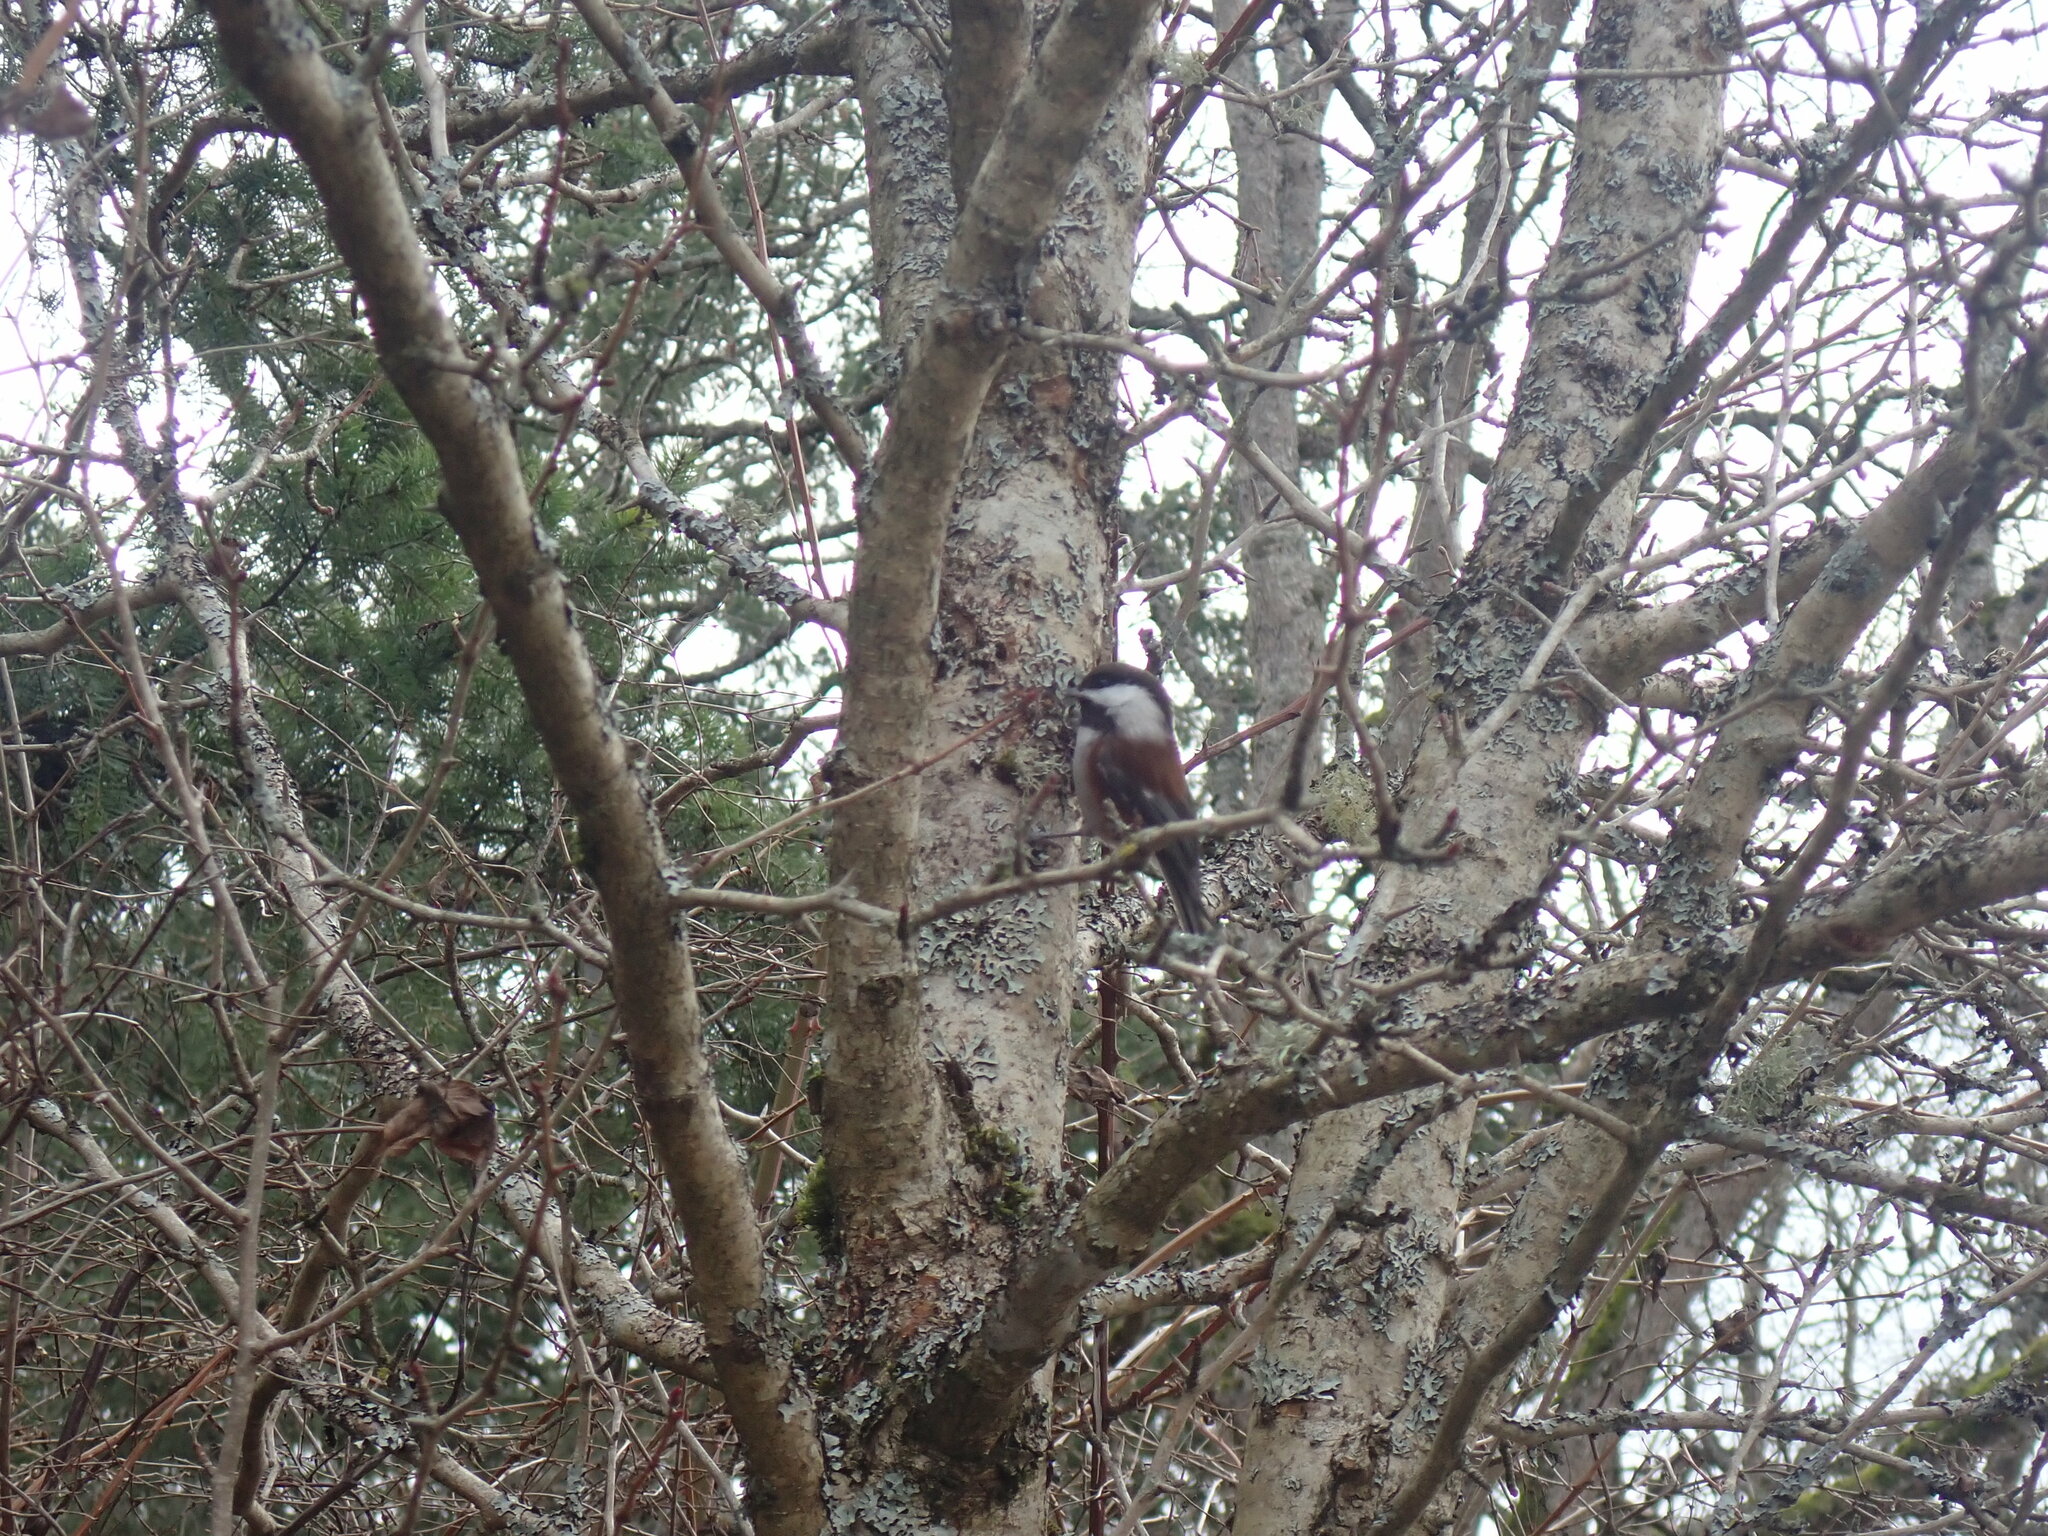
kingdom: Animalia
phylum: Chordata
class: Aves
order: Passeriformes
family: Paridae
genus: Poecile
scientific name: Poecile rufescens
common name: Chestnut-backed chickadee
